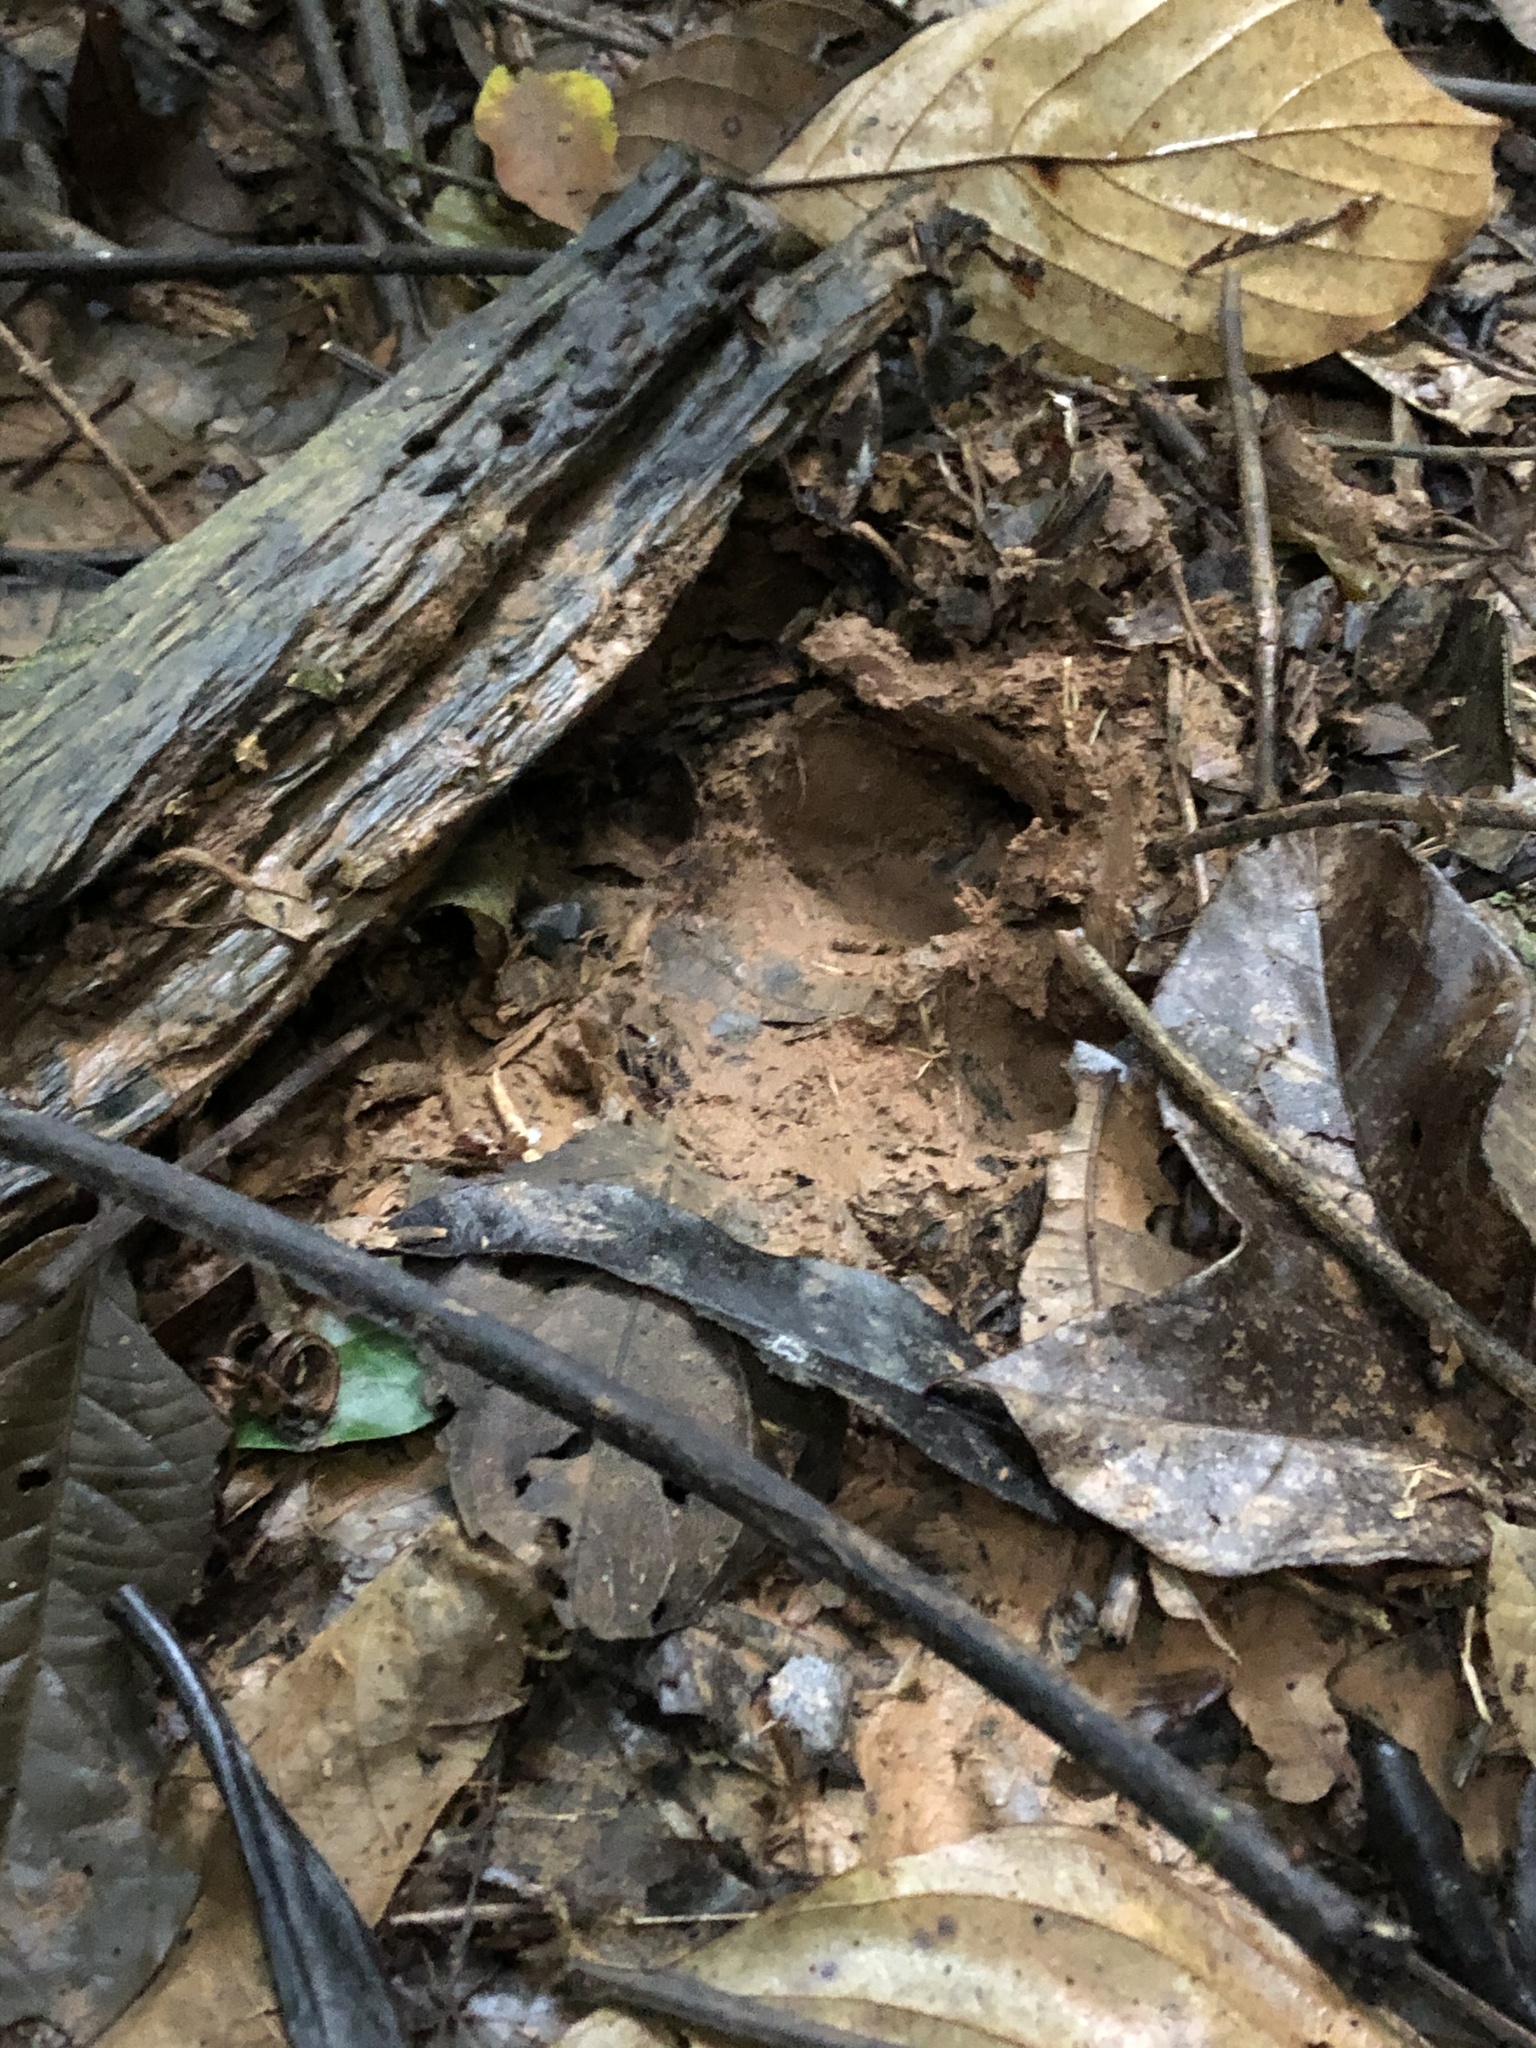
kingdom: Animalia
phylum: Chordata
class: Mammalia
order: Perissodactyla
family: Tapiridae
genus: Tapirus
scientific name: Tapirus terrestris
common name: Brazilian tapir
